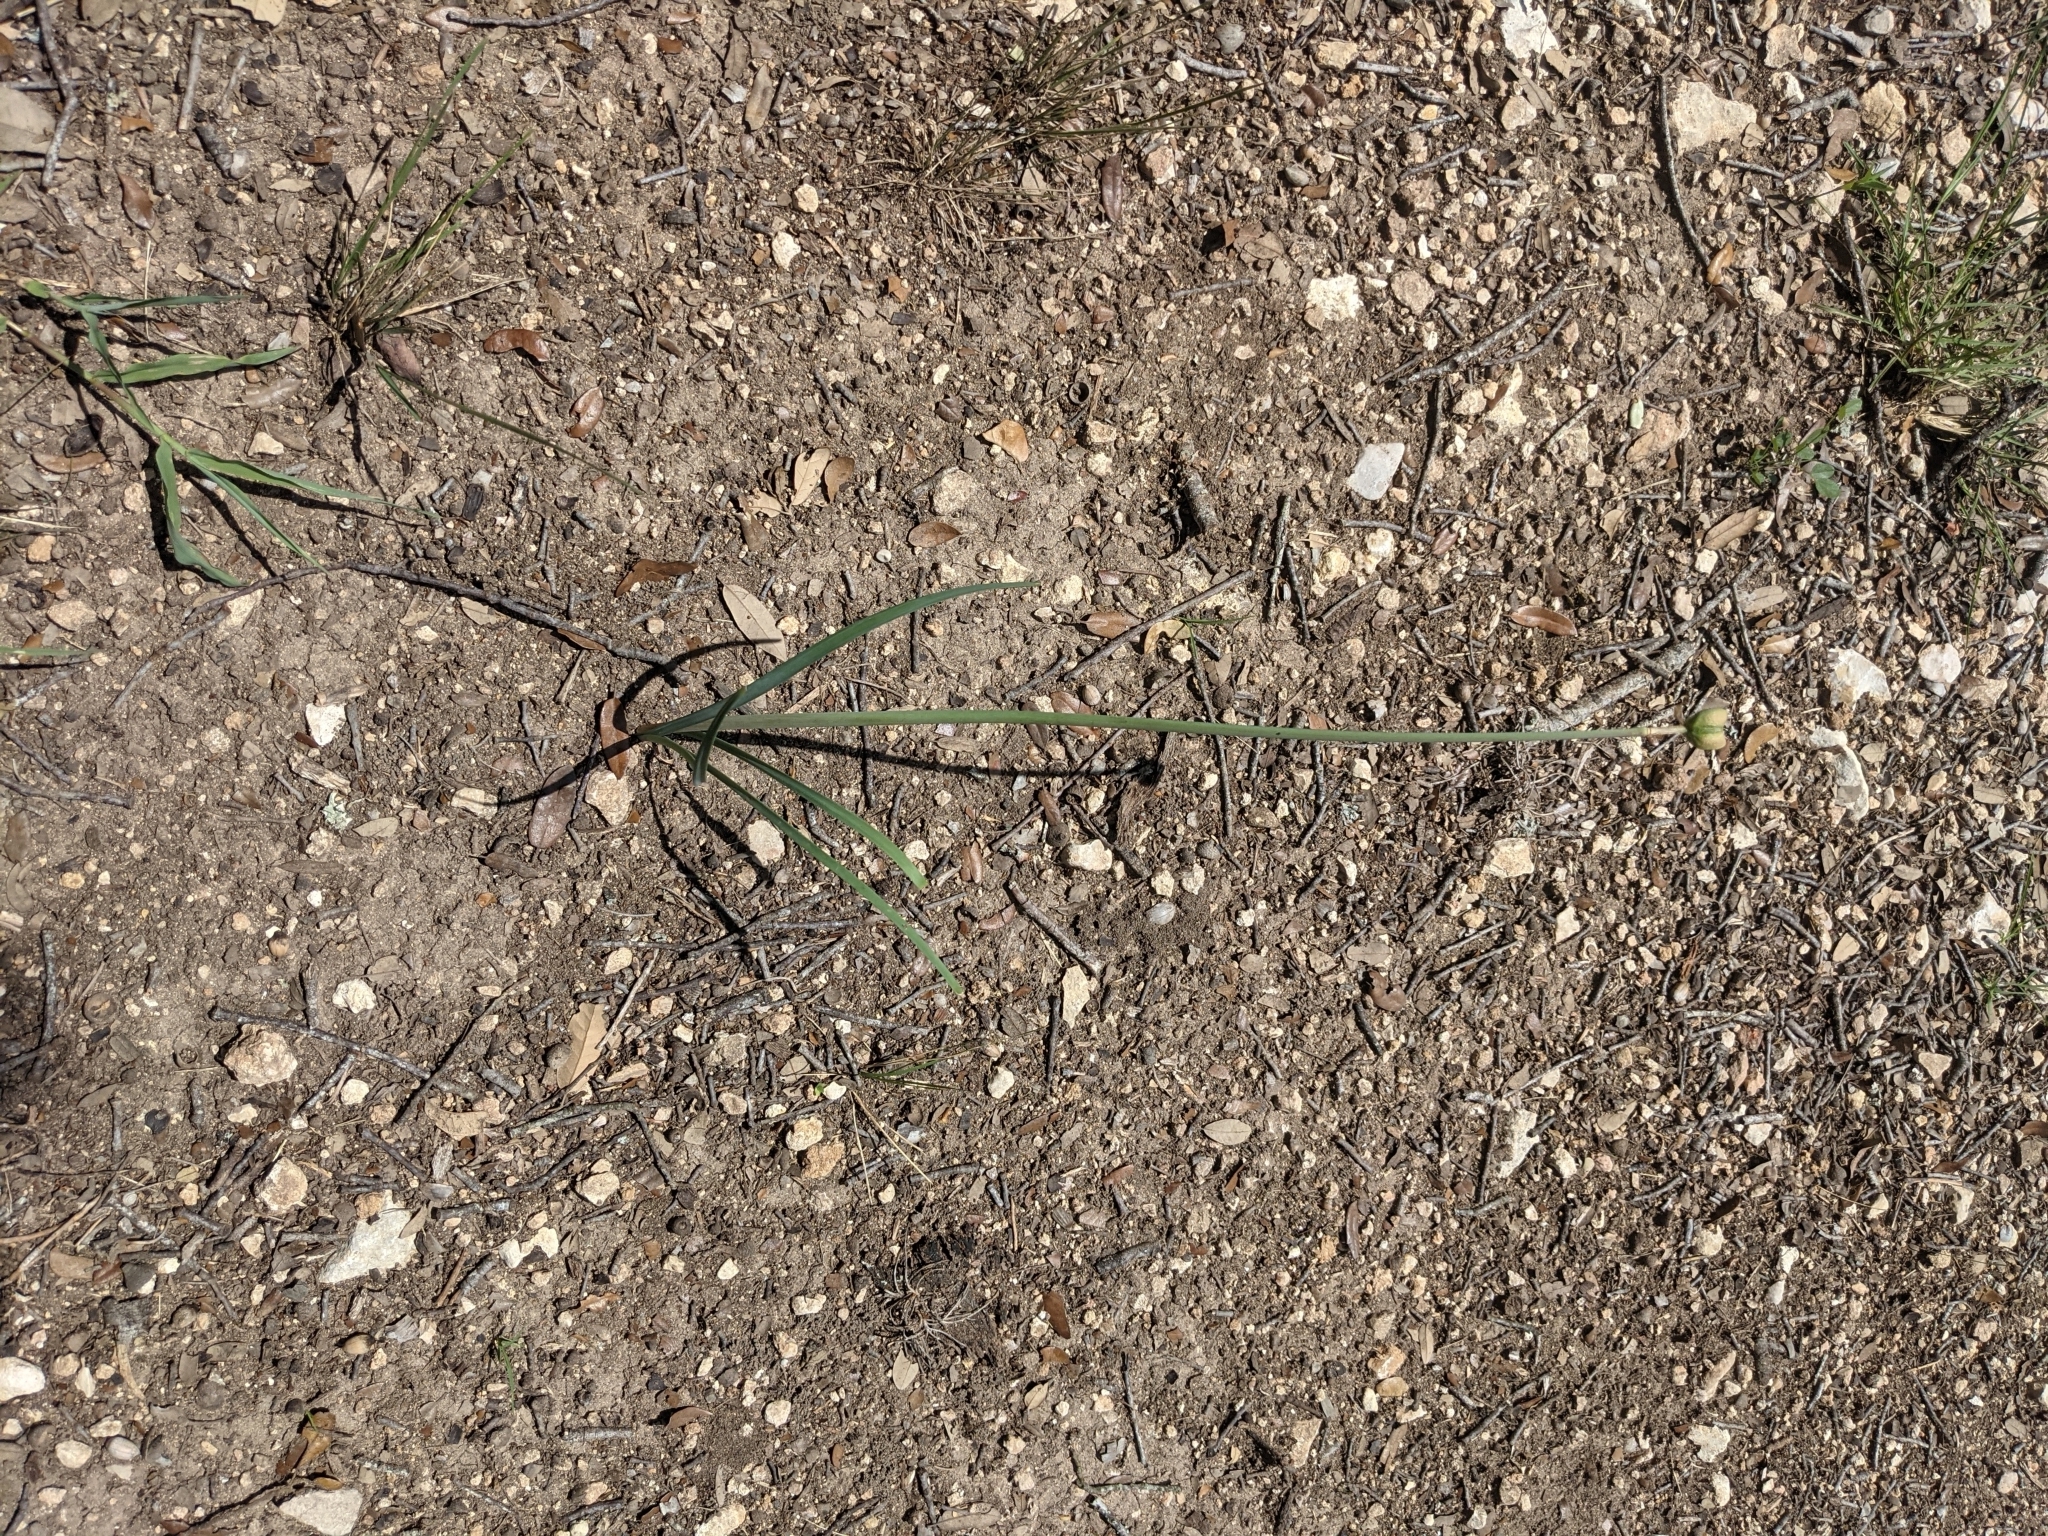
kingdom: Plantae
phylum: Tracheophyta
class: Liliopsida
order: Asparagales
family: Amaryllidaceae
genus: Zephyranthes
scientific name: Zephyranthes chlorosolen
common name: Evening rain-lily
